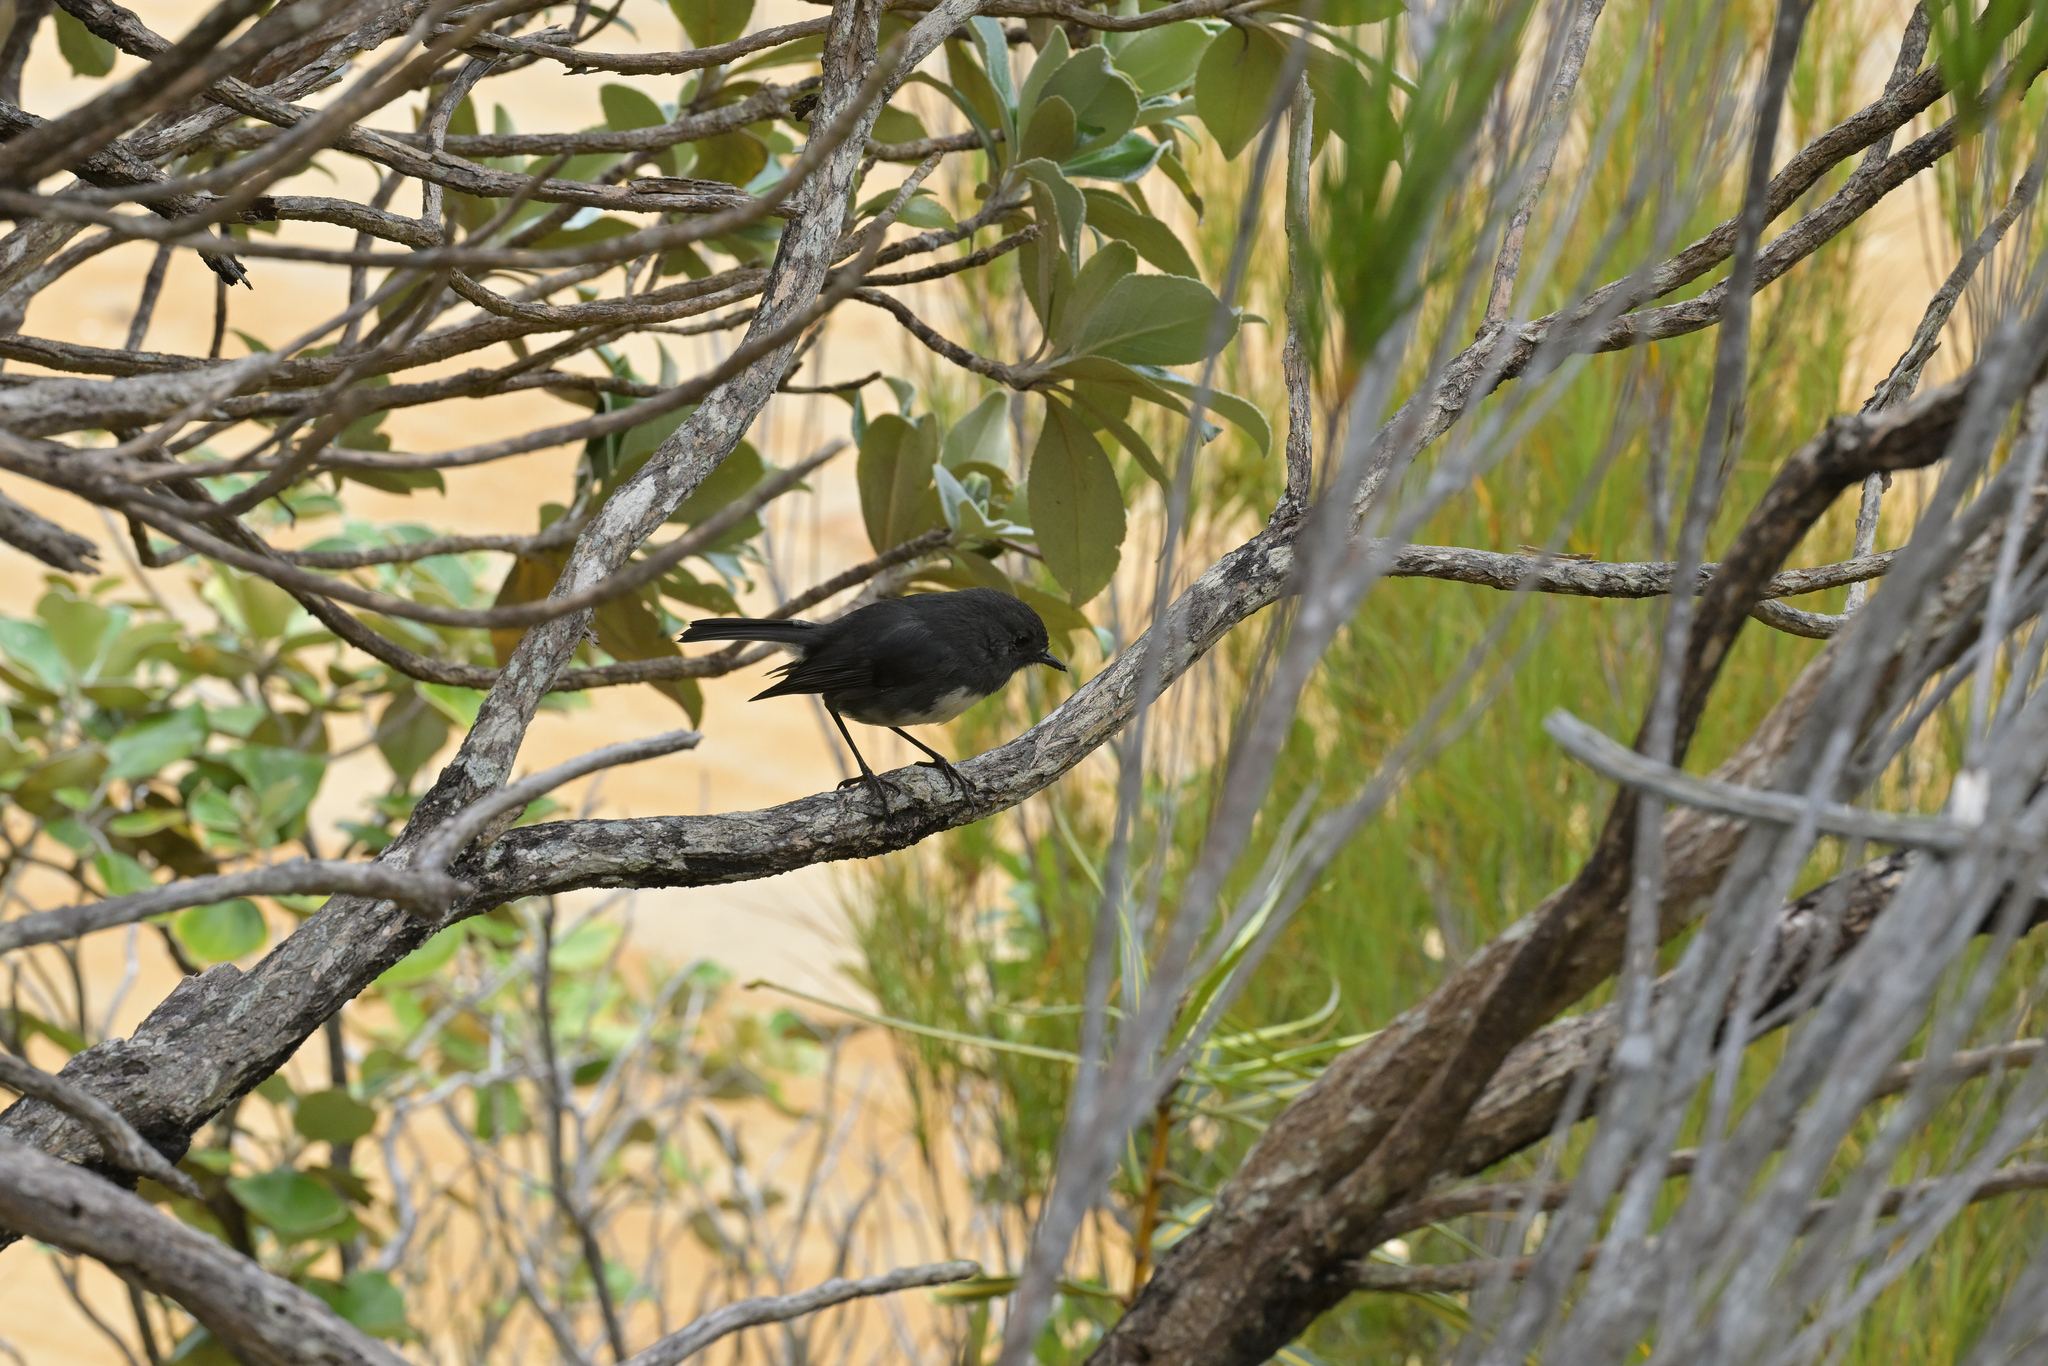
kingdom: Animalia
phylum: Chordata
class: Aves
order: Passeriformes
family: Petroicidae
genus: Petroica
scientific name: Petroica australis
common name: New zealand robin
